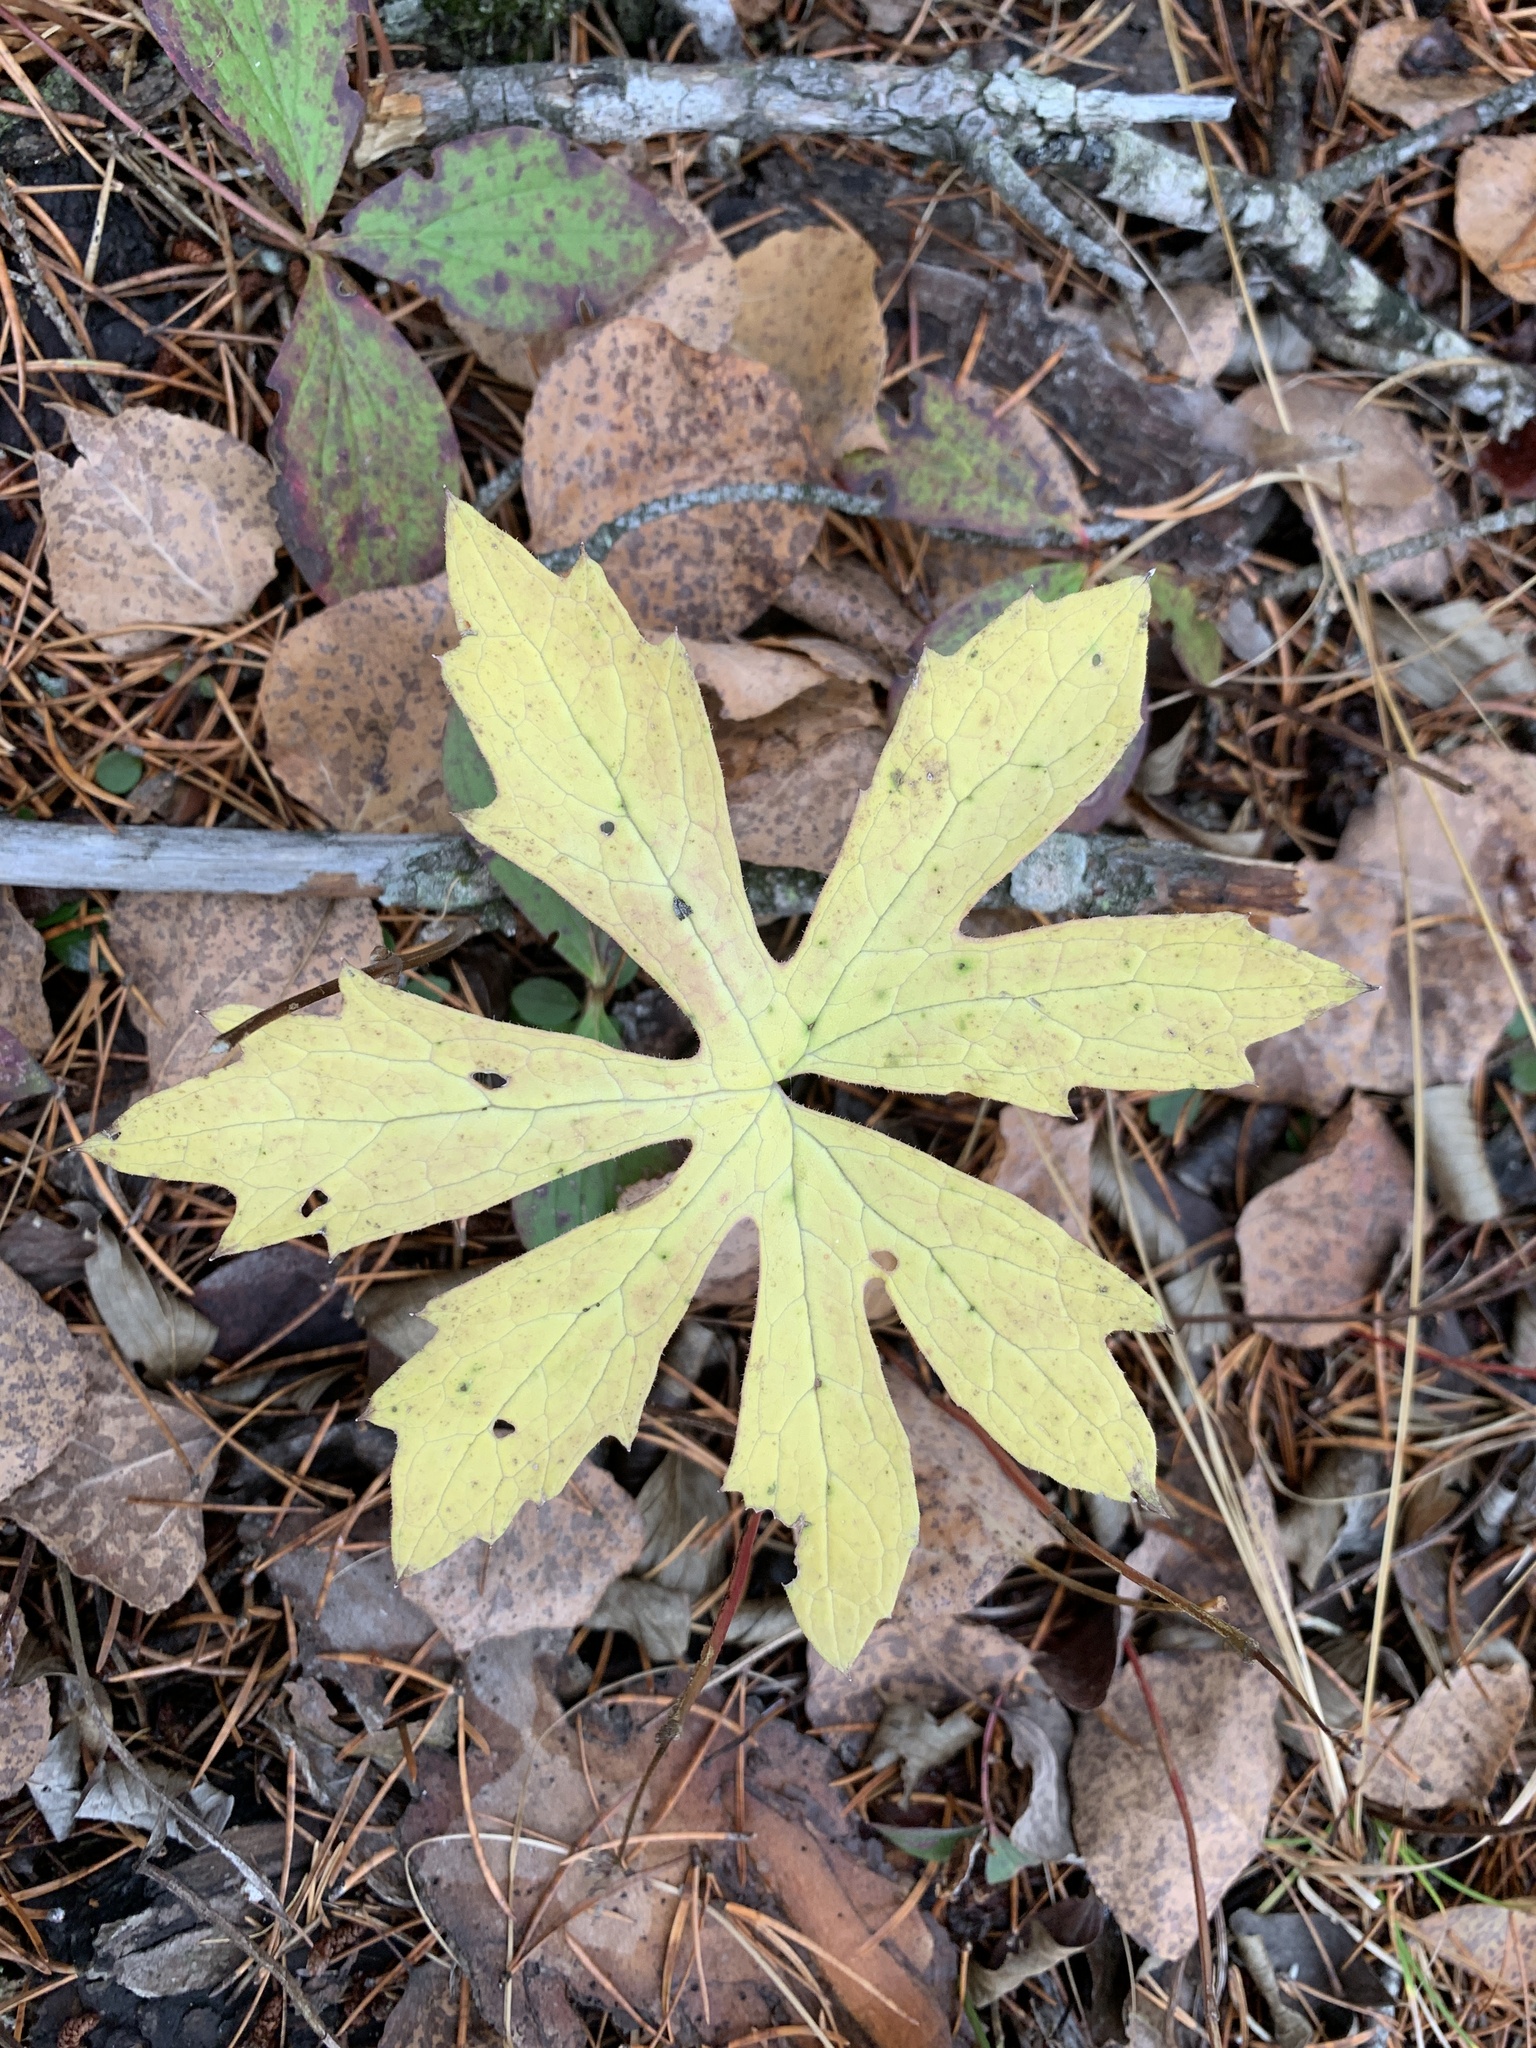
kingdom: Plantae
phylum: Tracheophyta
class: Magnoliopsida
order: Asterales
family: Asteraceae
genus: Petasites
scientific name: Petasites frigidus
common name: Arctic butterbur
